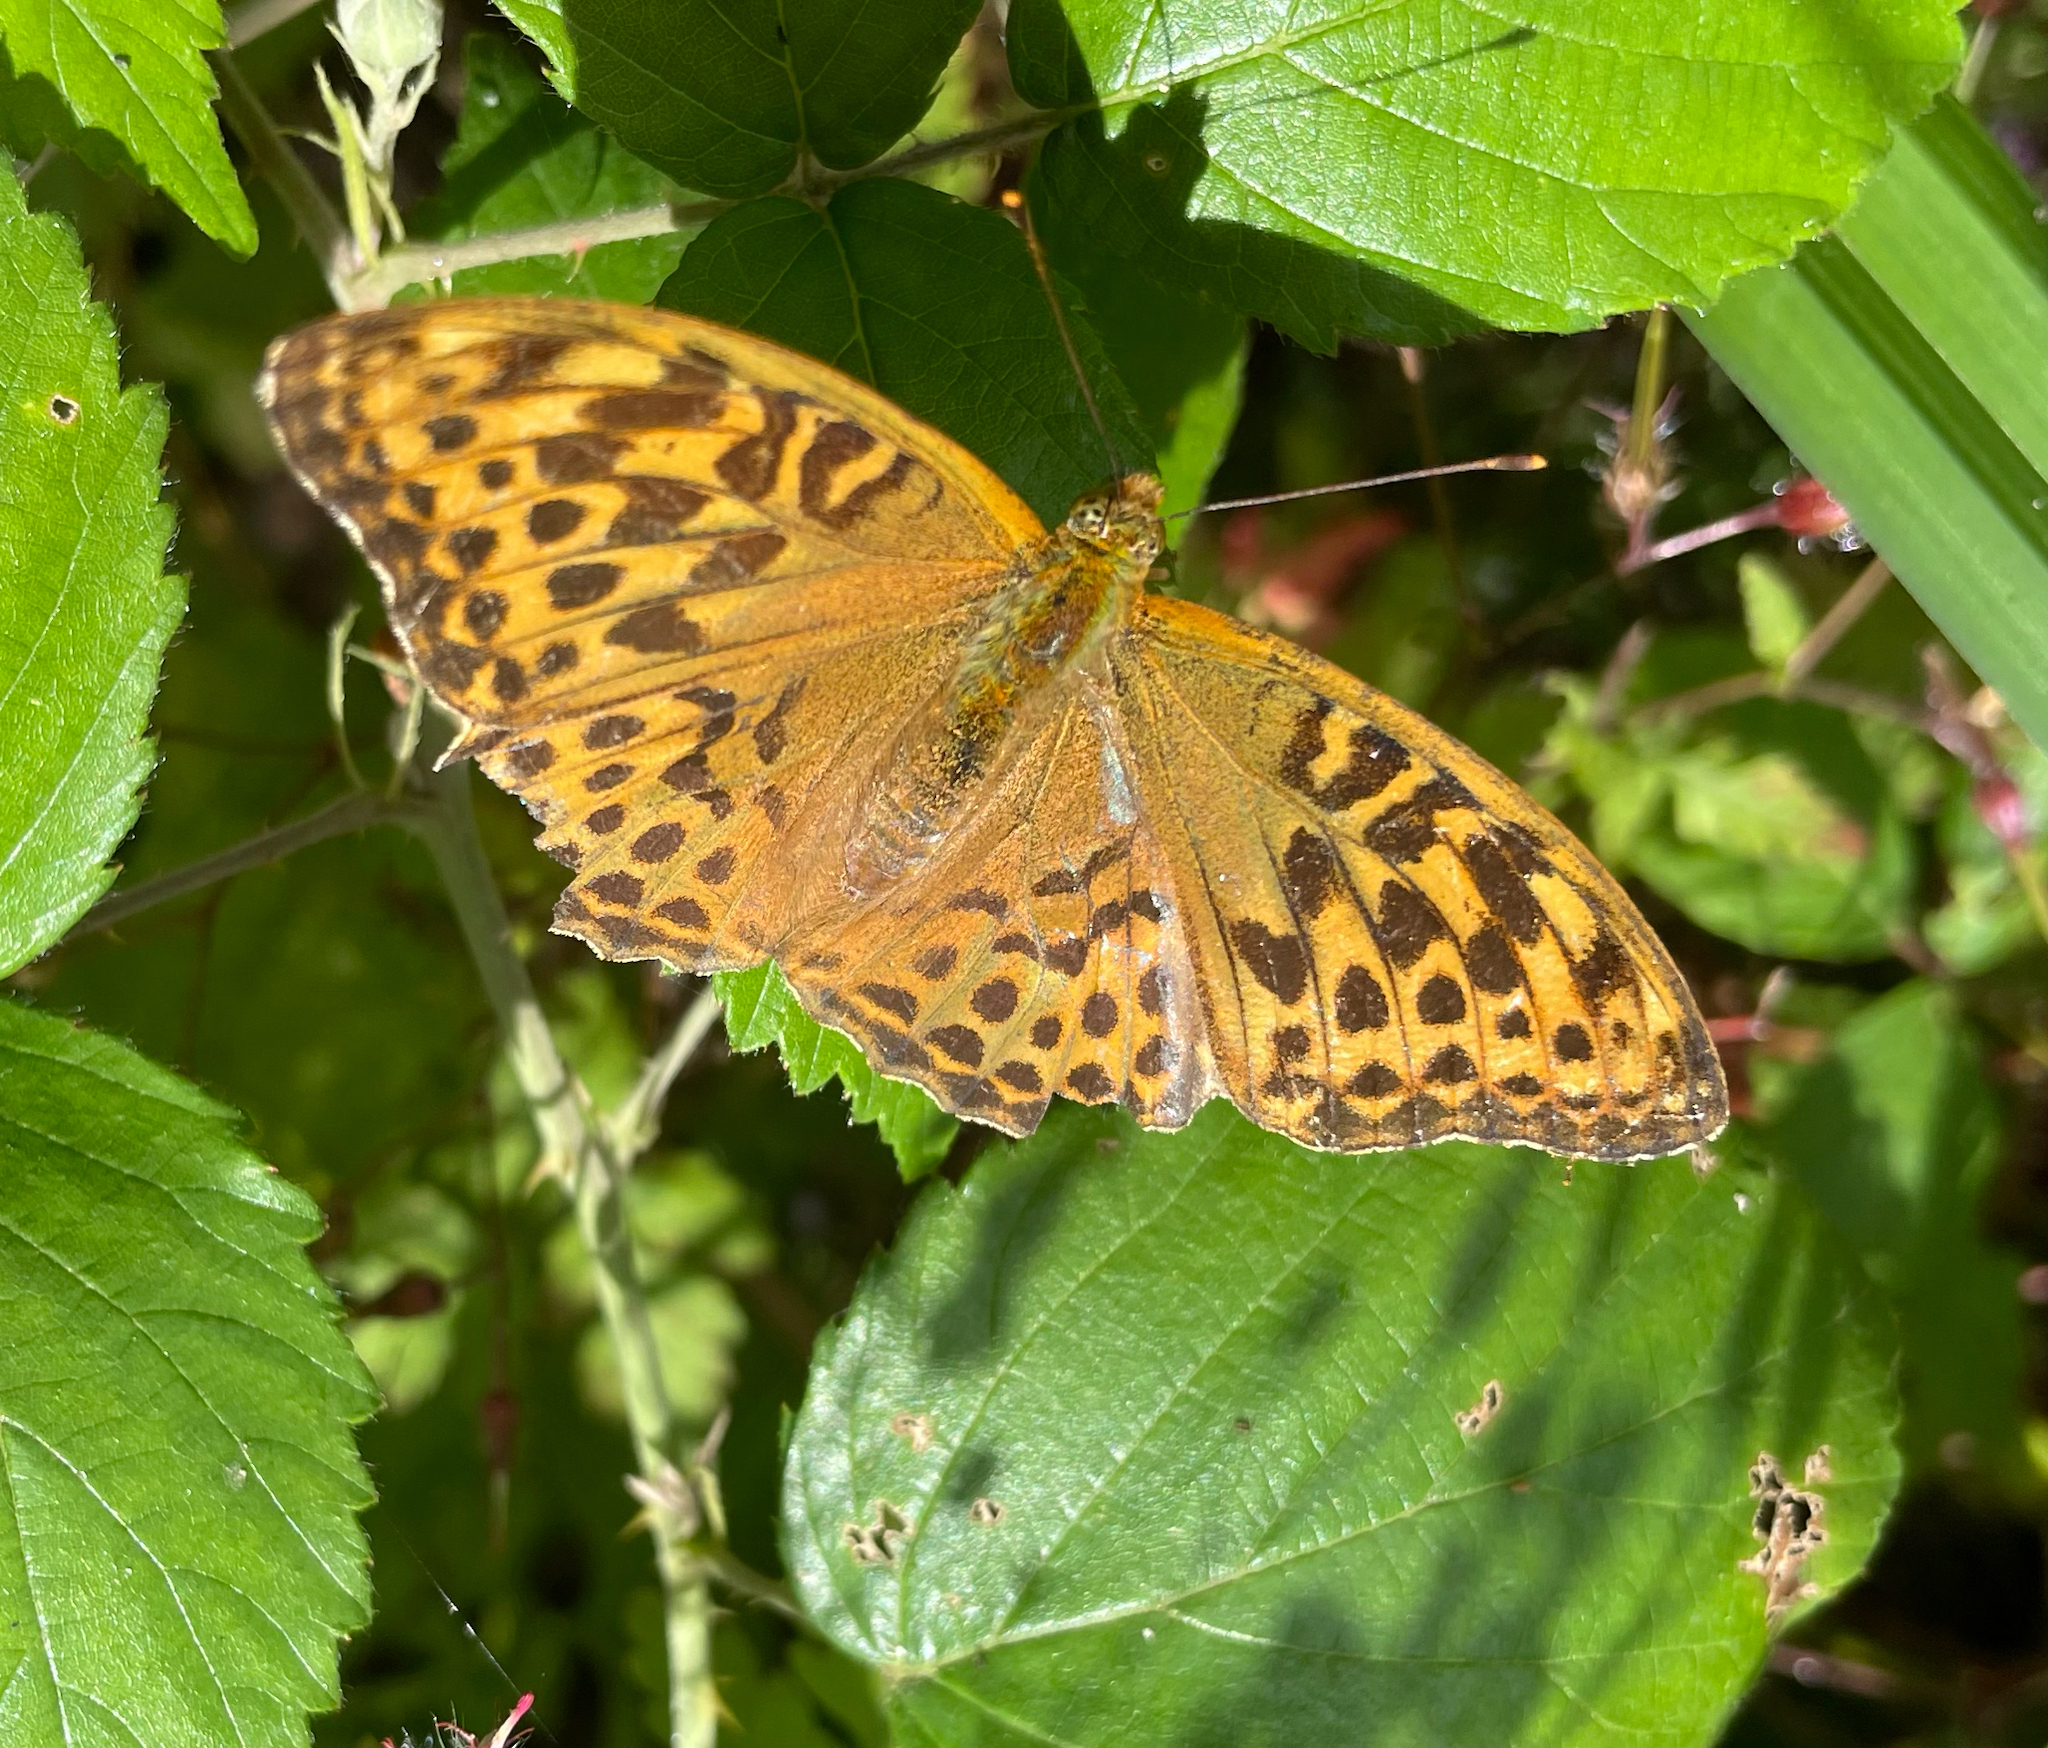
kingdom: Animalia
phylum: Arthropoda
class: Insecta
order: Lepidoptera
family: Nymphalidae
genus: Argynnis
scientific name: Argynnis paphia
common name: Silver-washed fritillary
